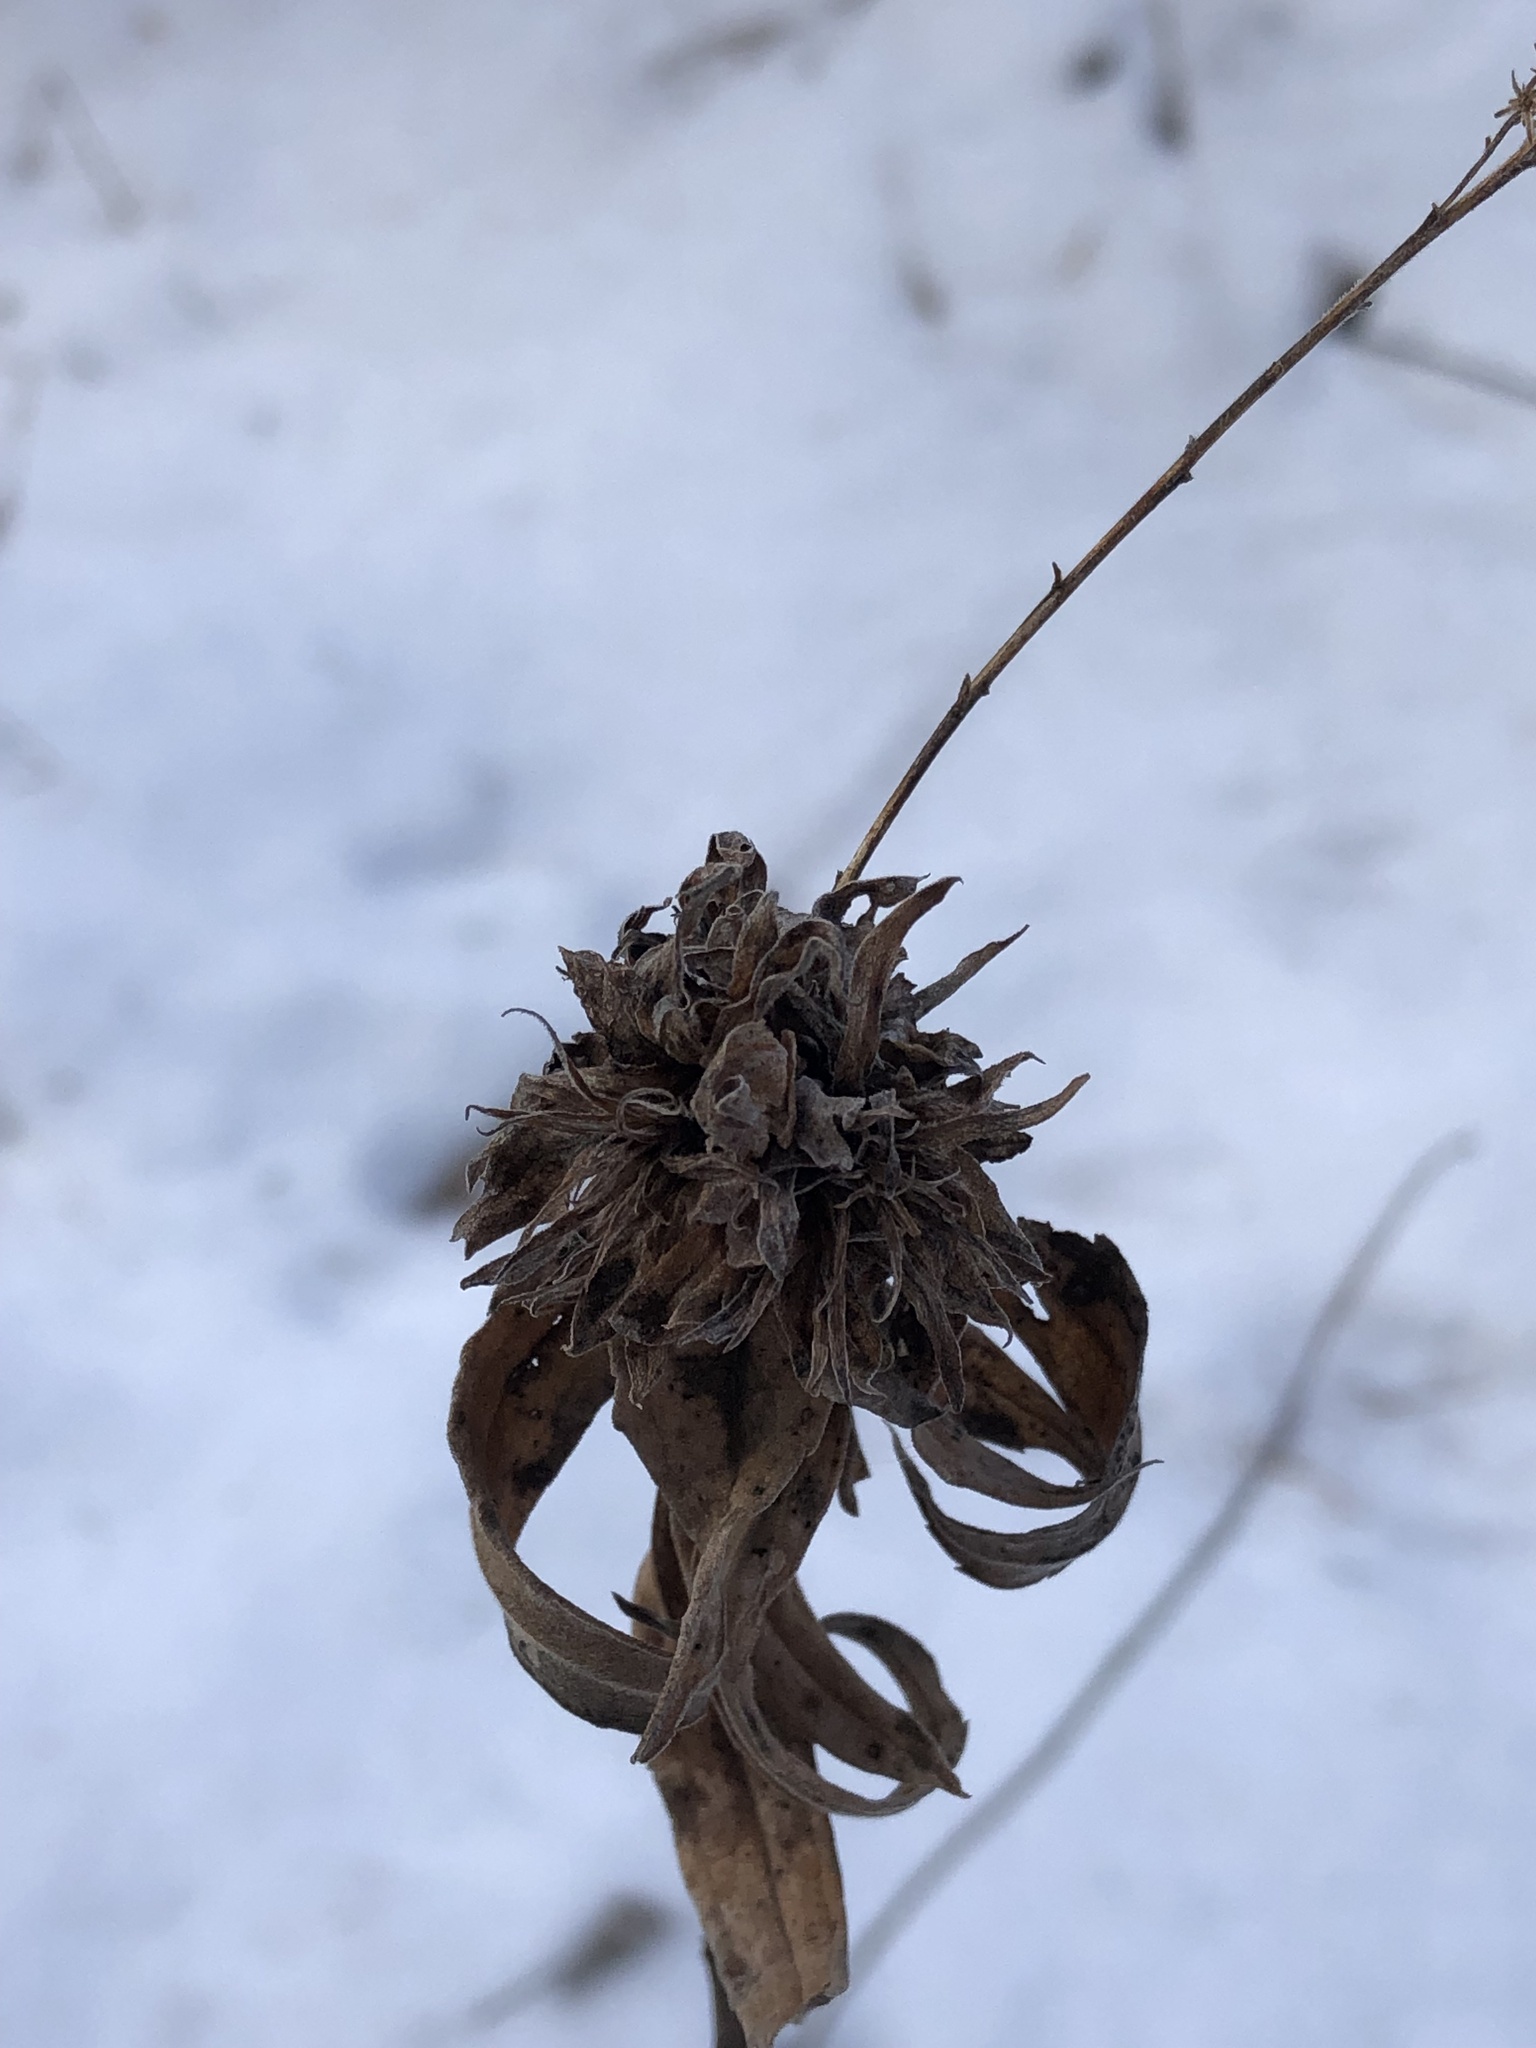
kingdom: Animalia
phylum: Arthropoda
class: Insecta
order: Diptera
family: Cecidomyiidae
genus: Rhopalomyia
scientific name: Rhopalomyia solidaginis
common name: Goldenrod bunch gall midge
